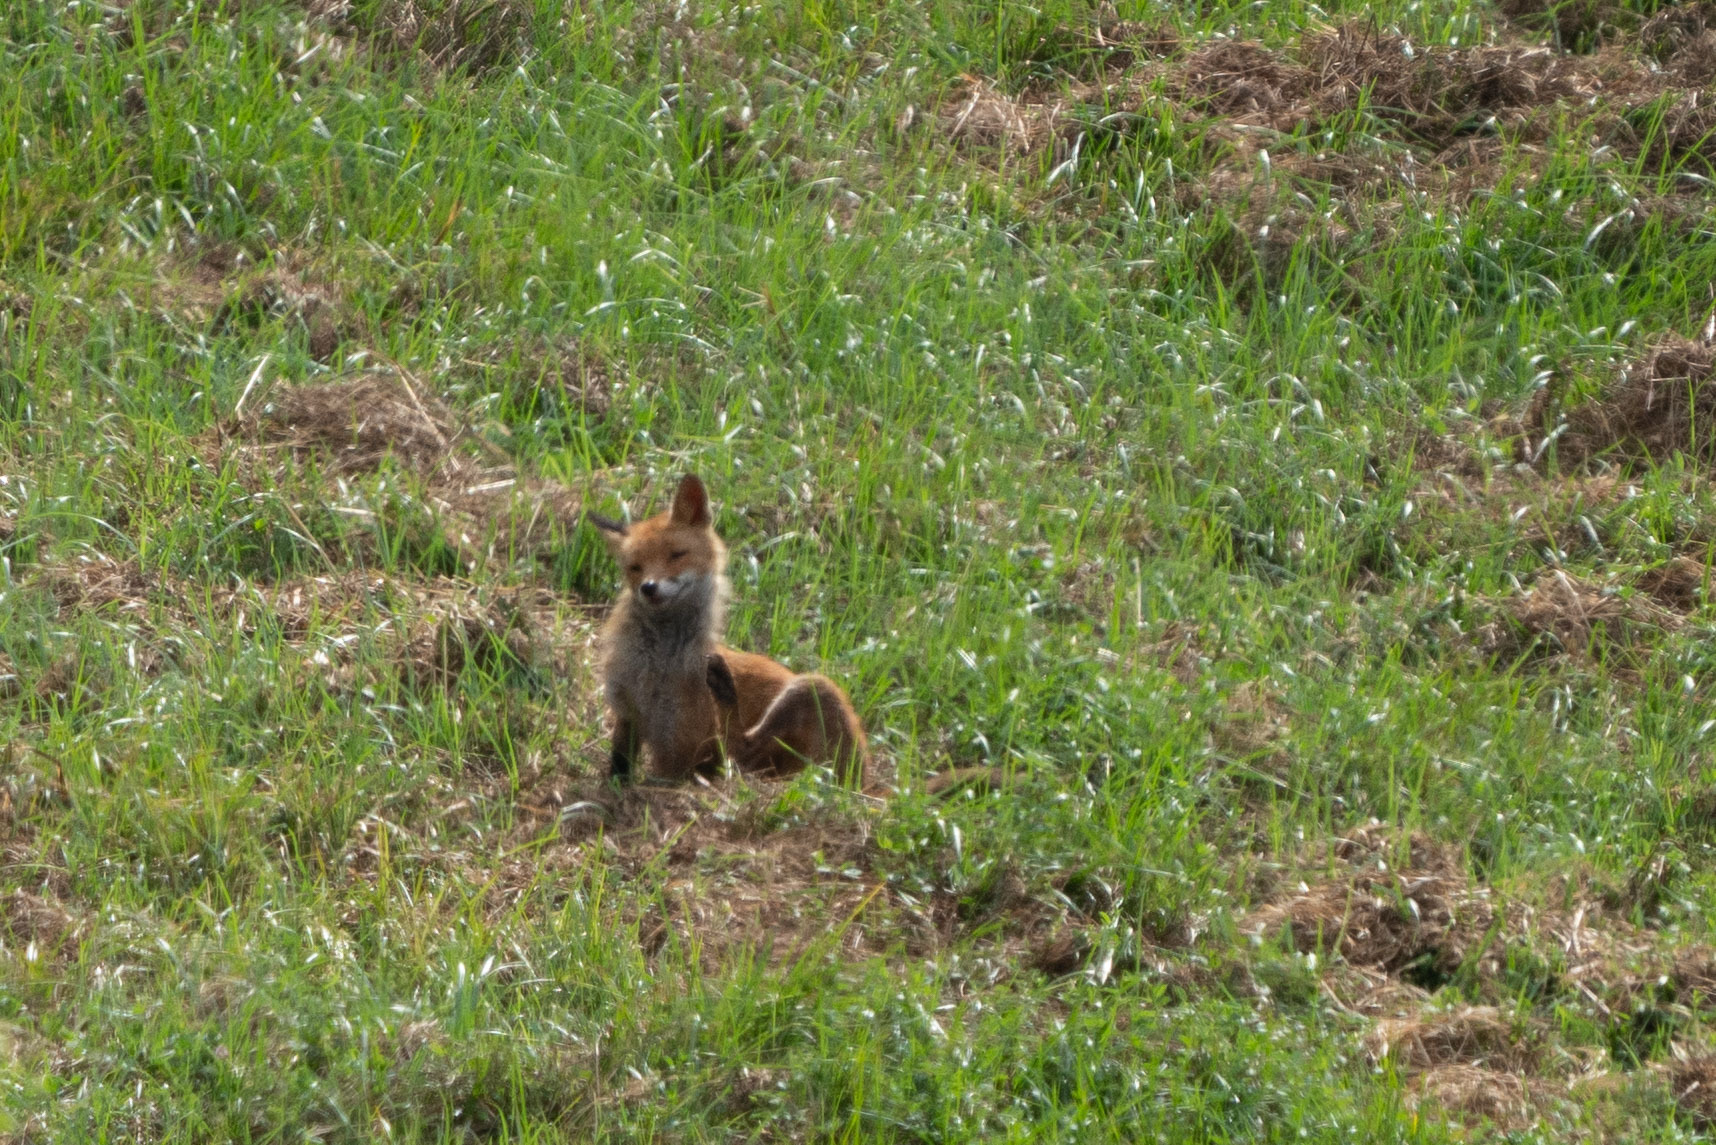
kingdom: Animalia
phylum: Chordata
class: Mammalia
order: Carnivora
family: Canidae
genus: Vulpes
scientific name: Vulpes vulpes
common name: Red fox
